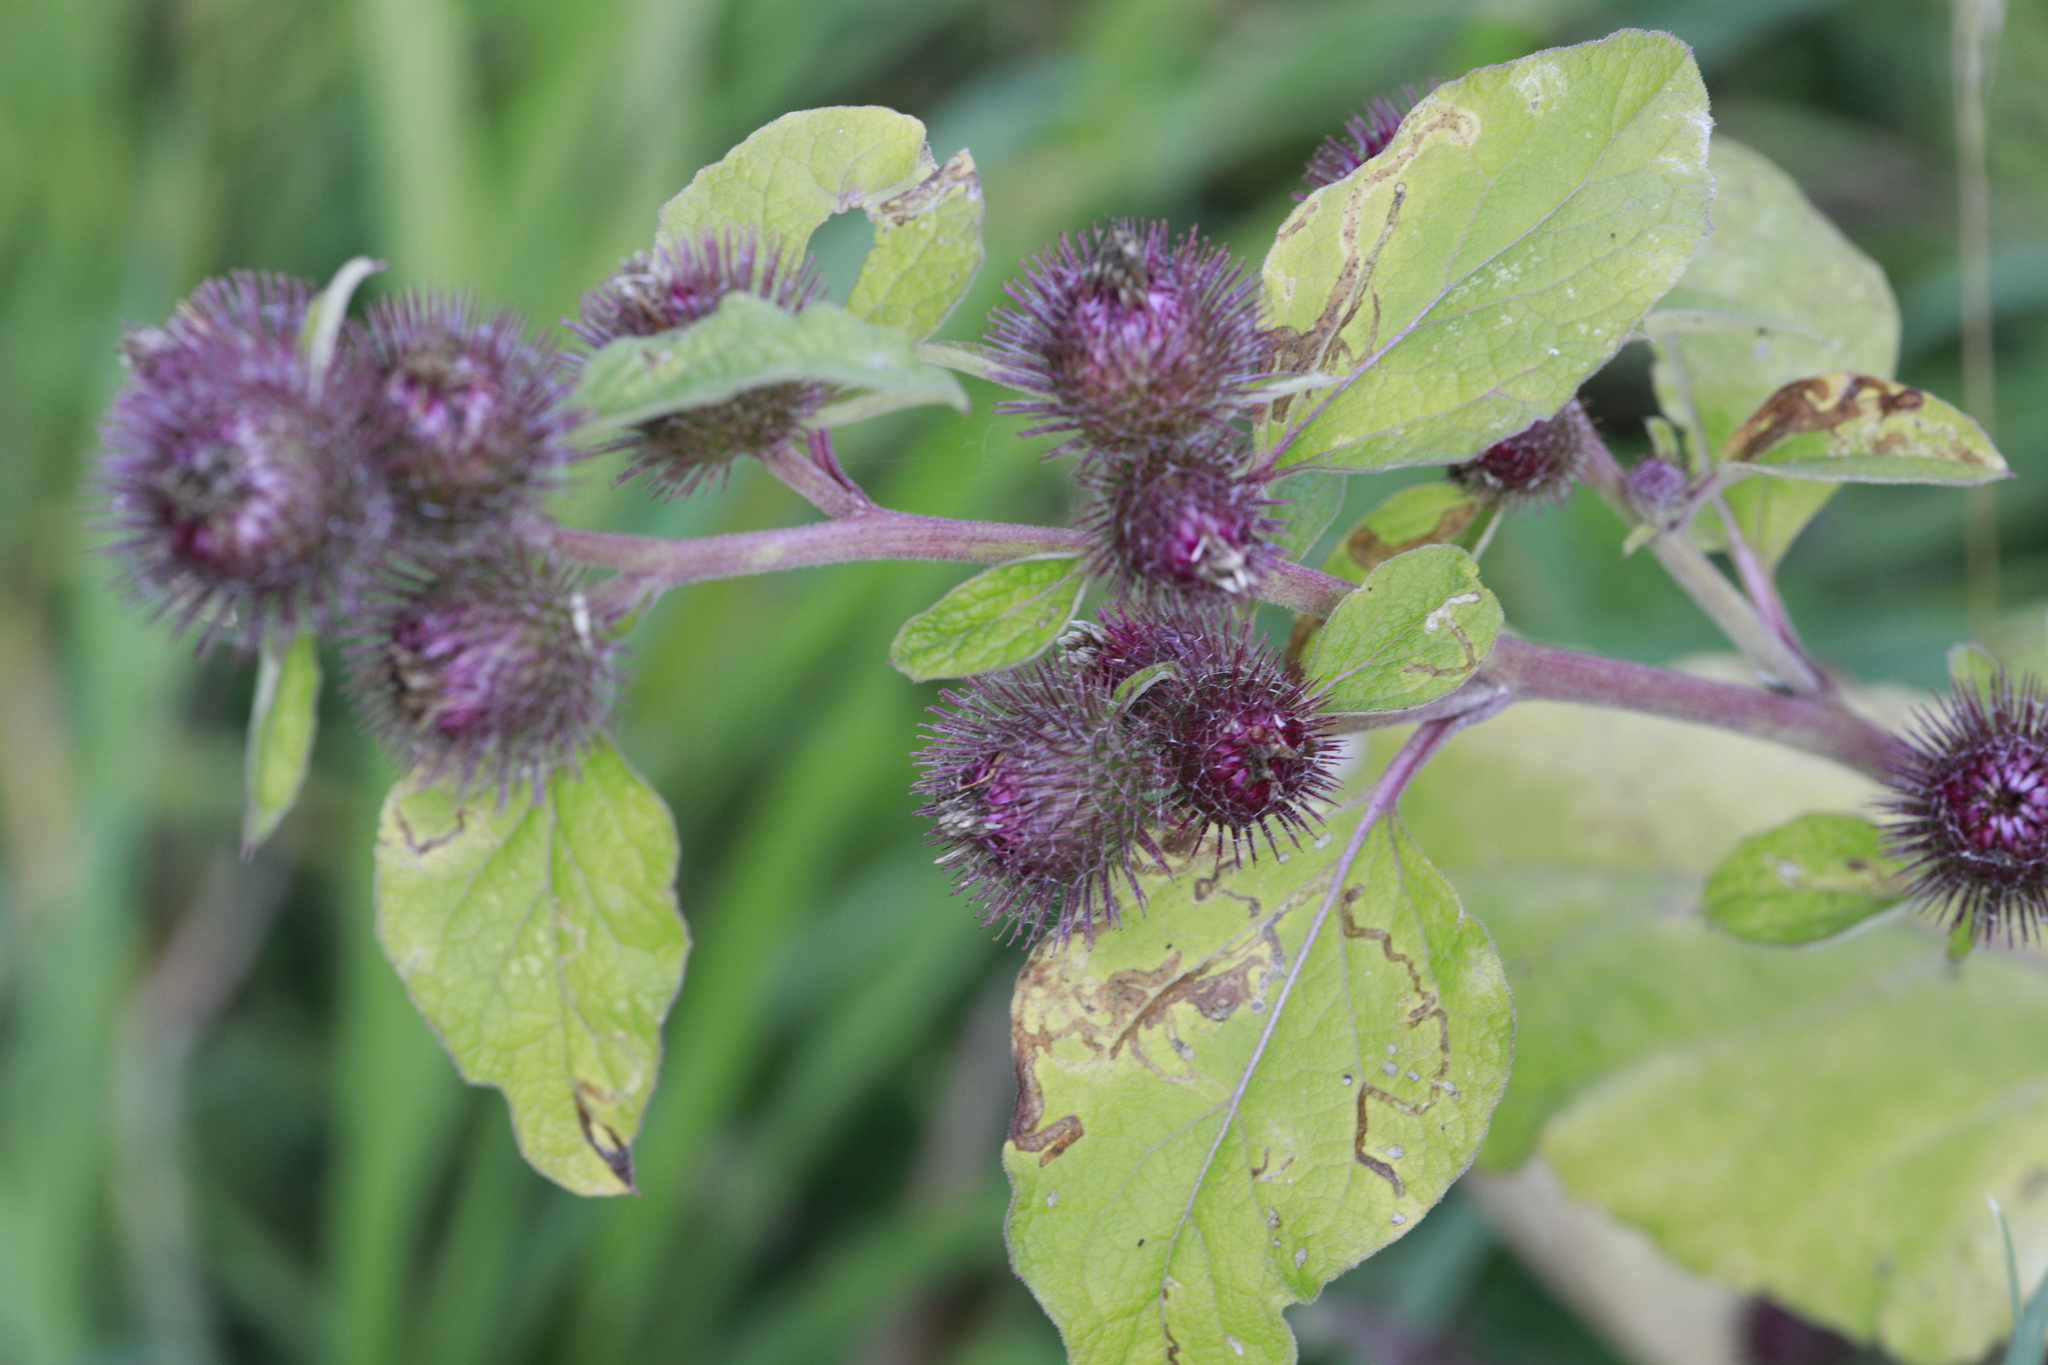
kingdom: Plantae
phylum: Tracheophyta
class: Magnoliopsida
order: Asterales
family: Asteraceae
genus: Arctium
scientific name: Arctium minus
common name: Lesser burdock
